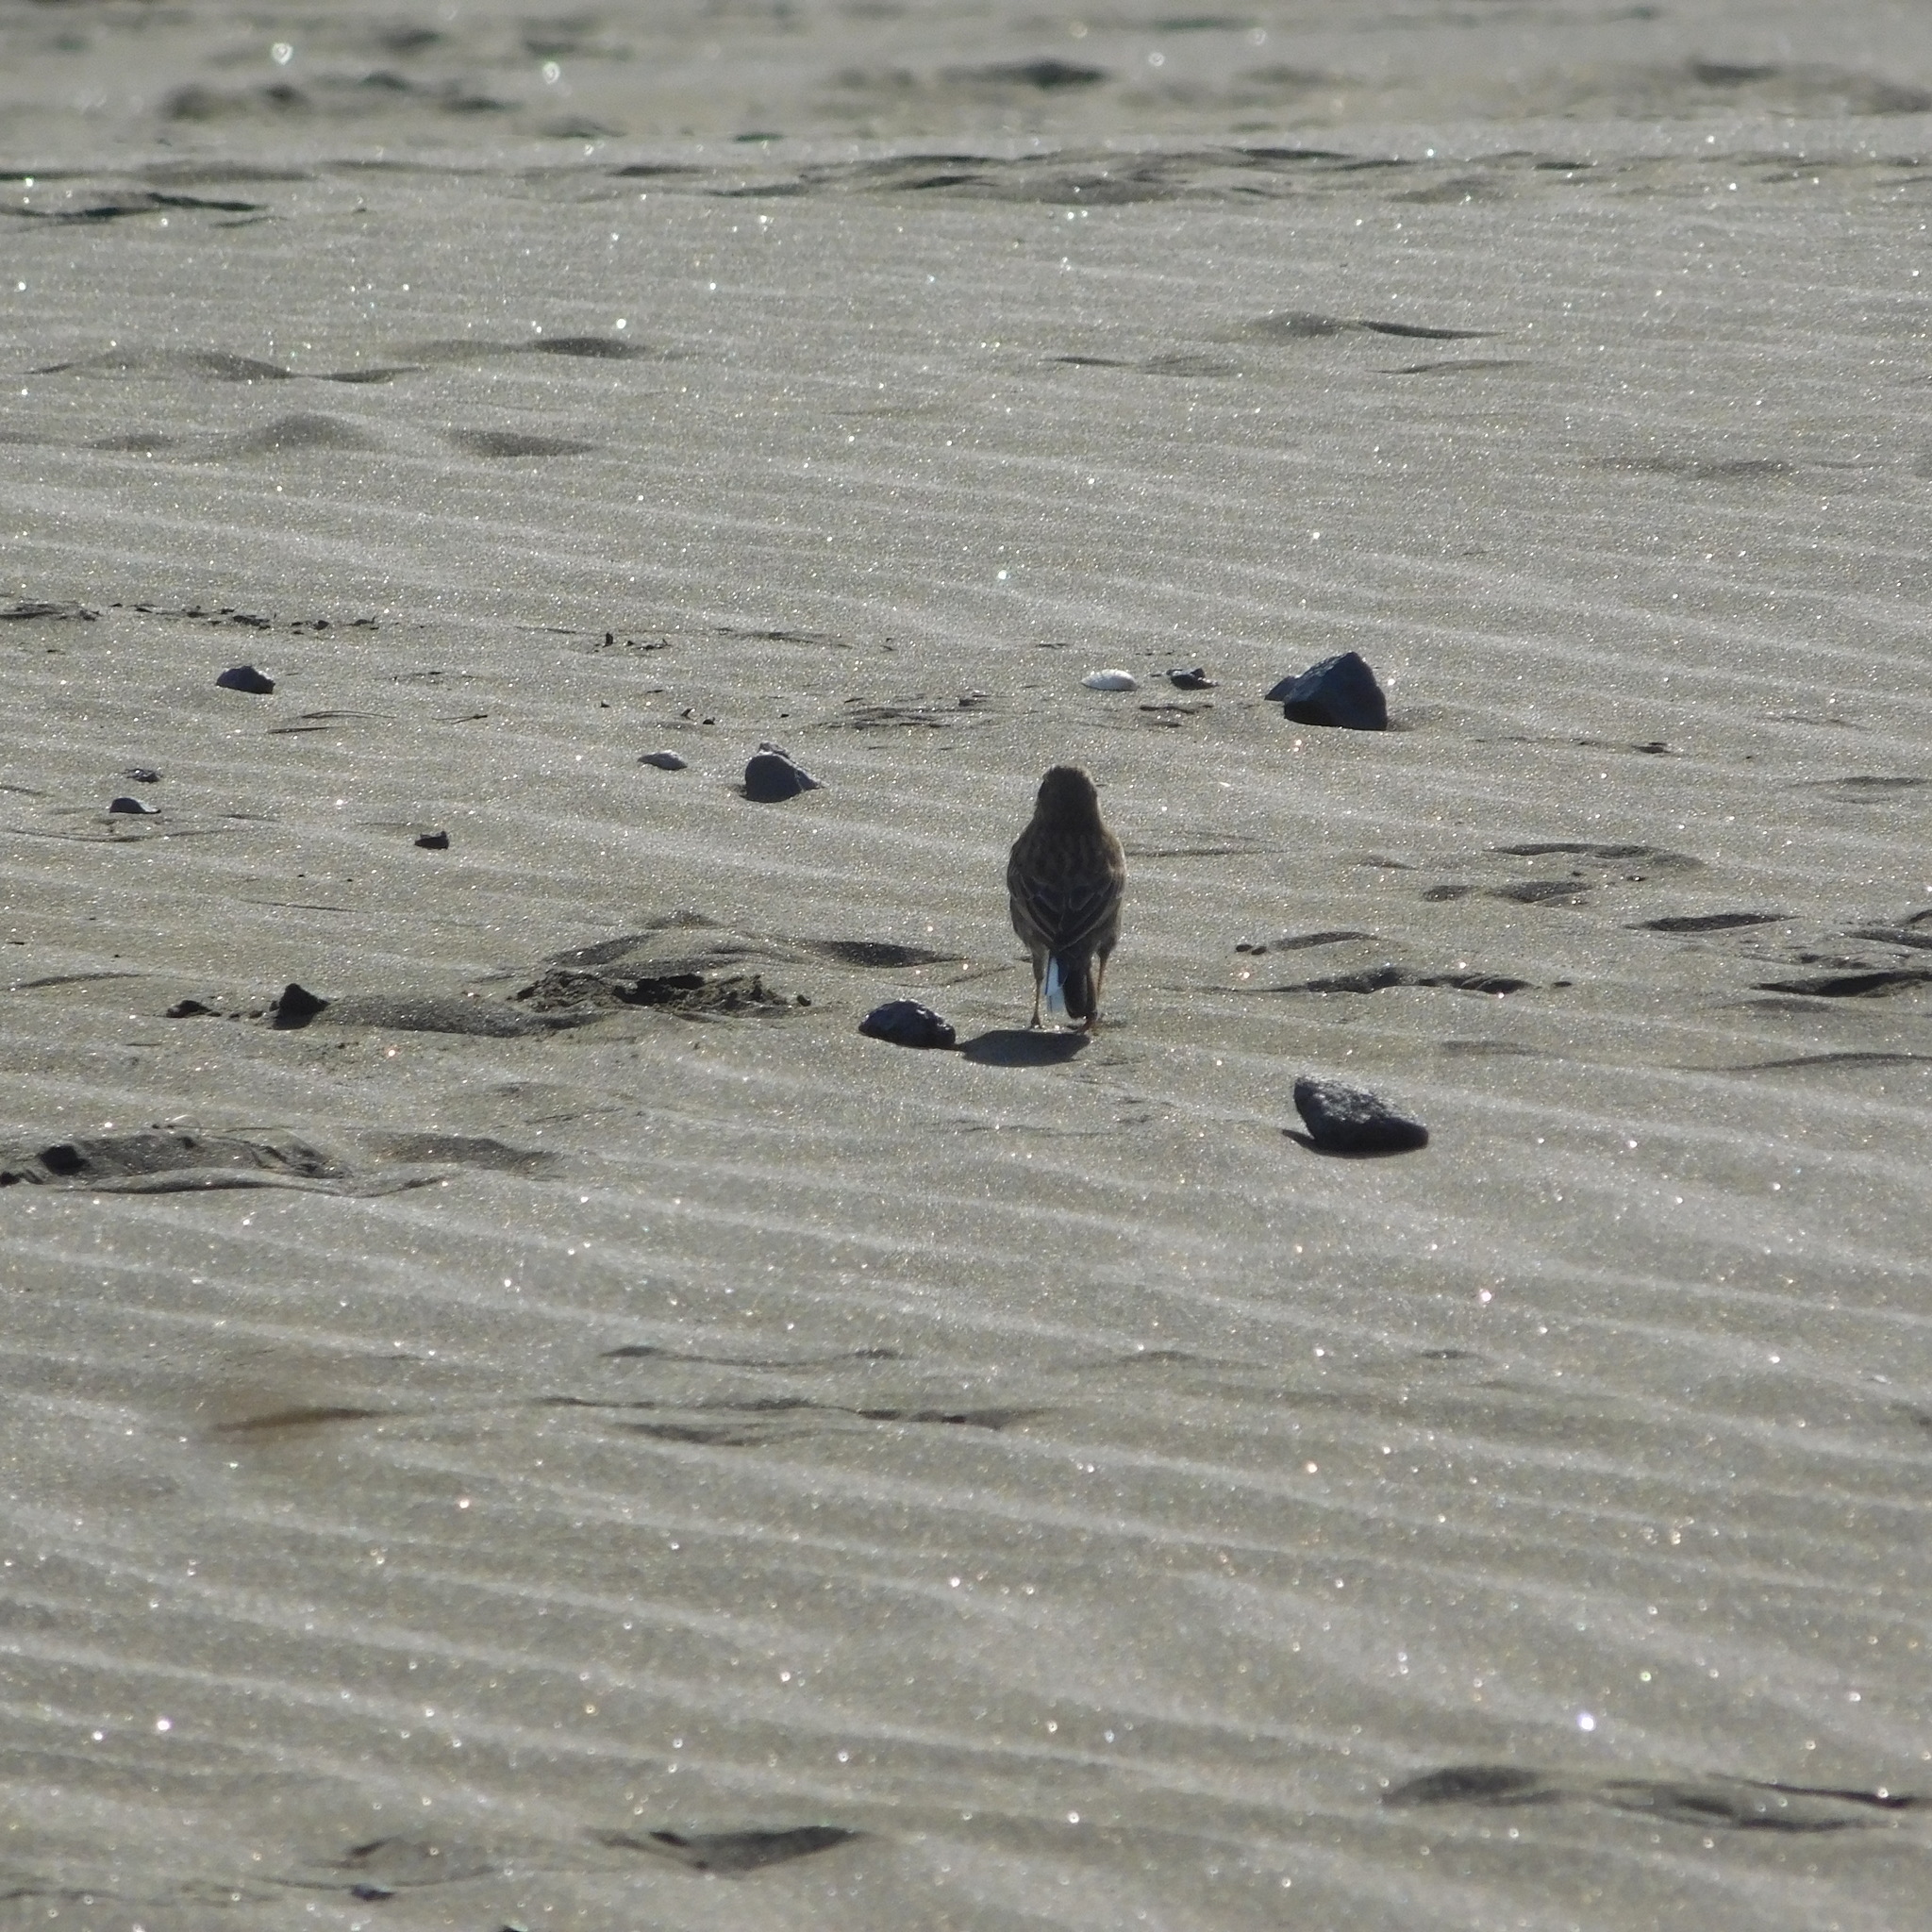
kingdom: Animalia
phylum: Chordata
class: Aves
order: Passeriformes
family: Motacillidae
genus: Anthus
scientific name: Anthus novaeseelandiae
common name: New zealand pipit
